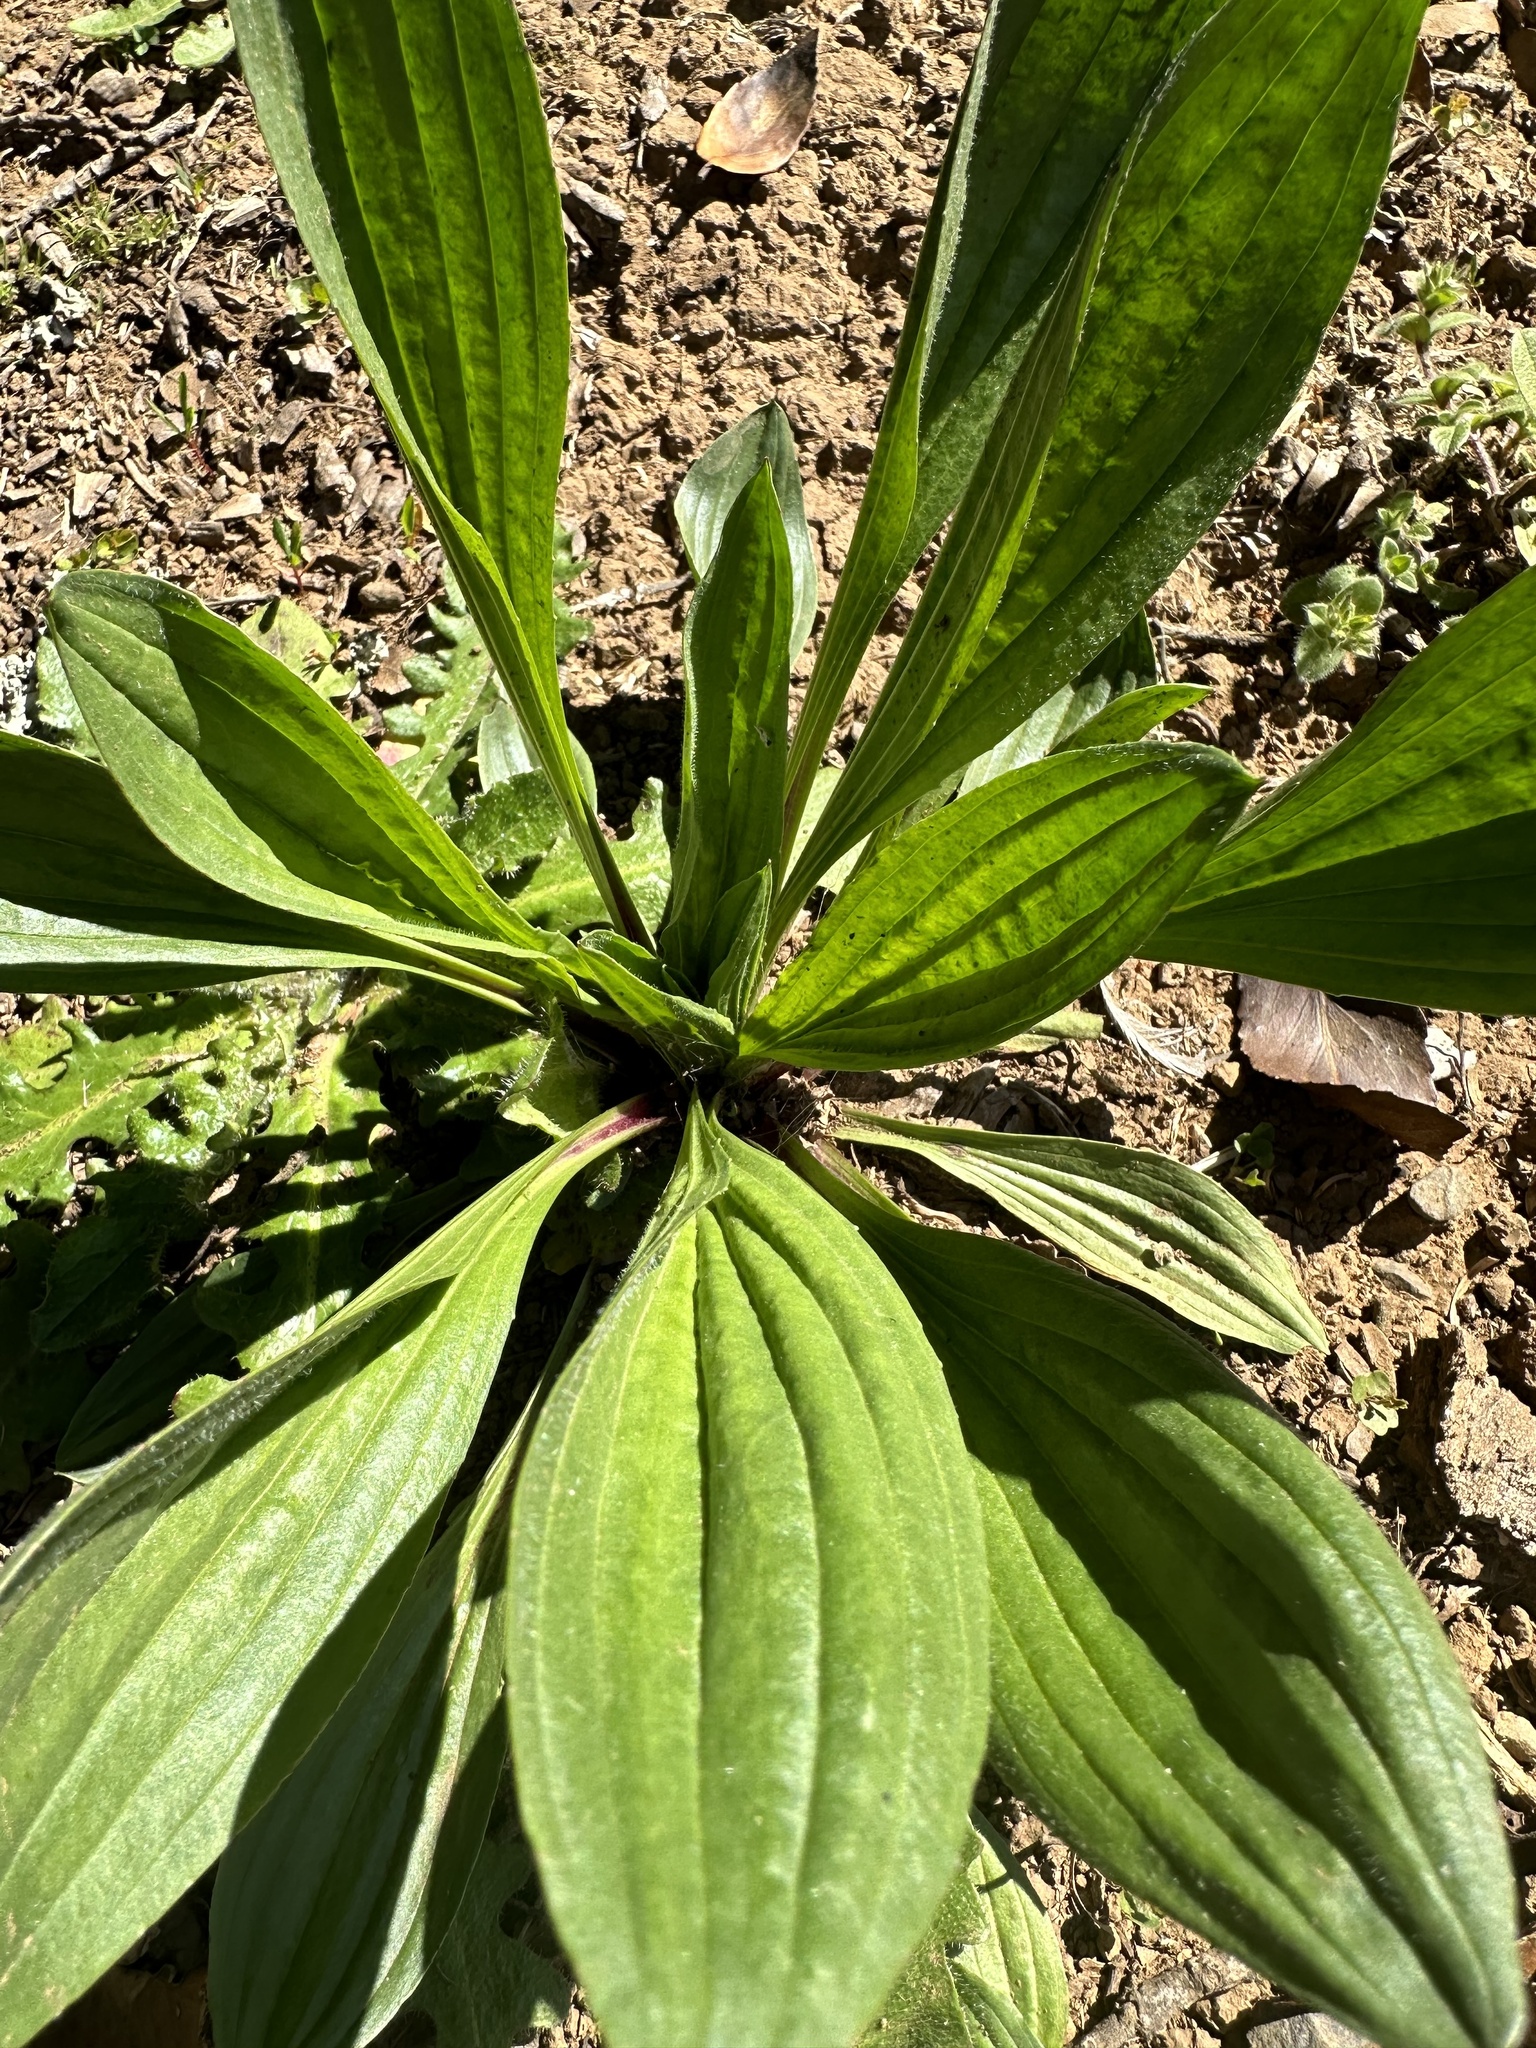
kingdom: Plantae
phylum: Tracheophyta
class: Magnoliopsida
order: Lamiales
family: Plantaginaceae
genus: Plantago
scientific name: Plantago lanceolata
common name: Ribwort plantain
